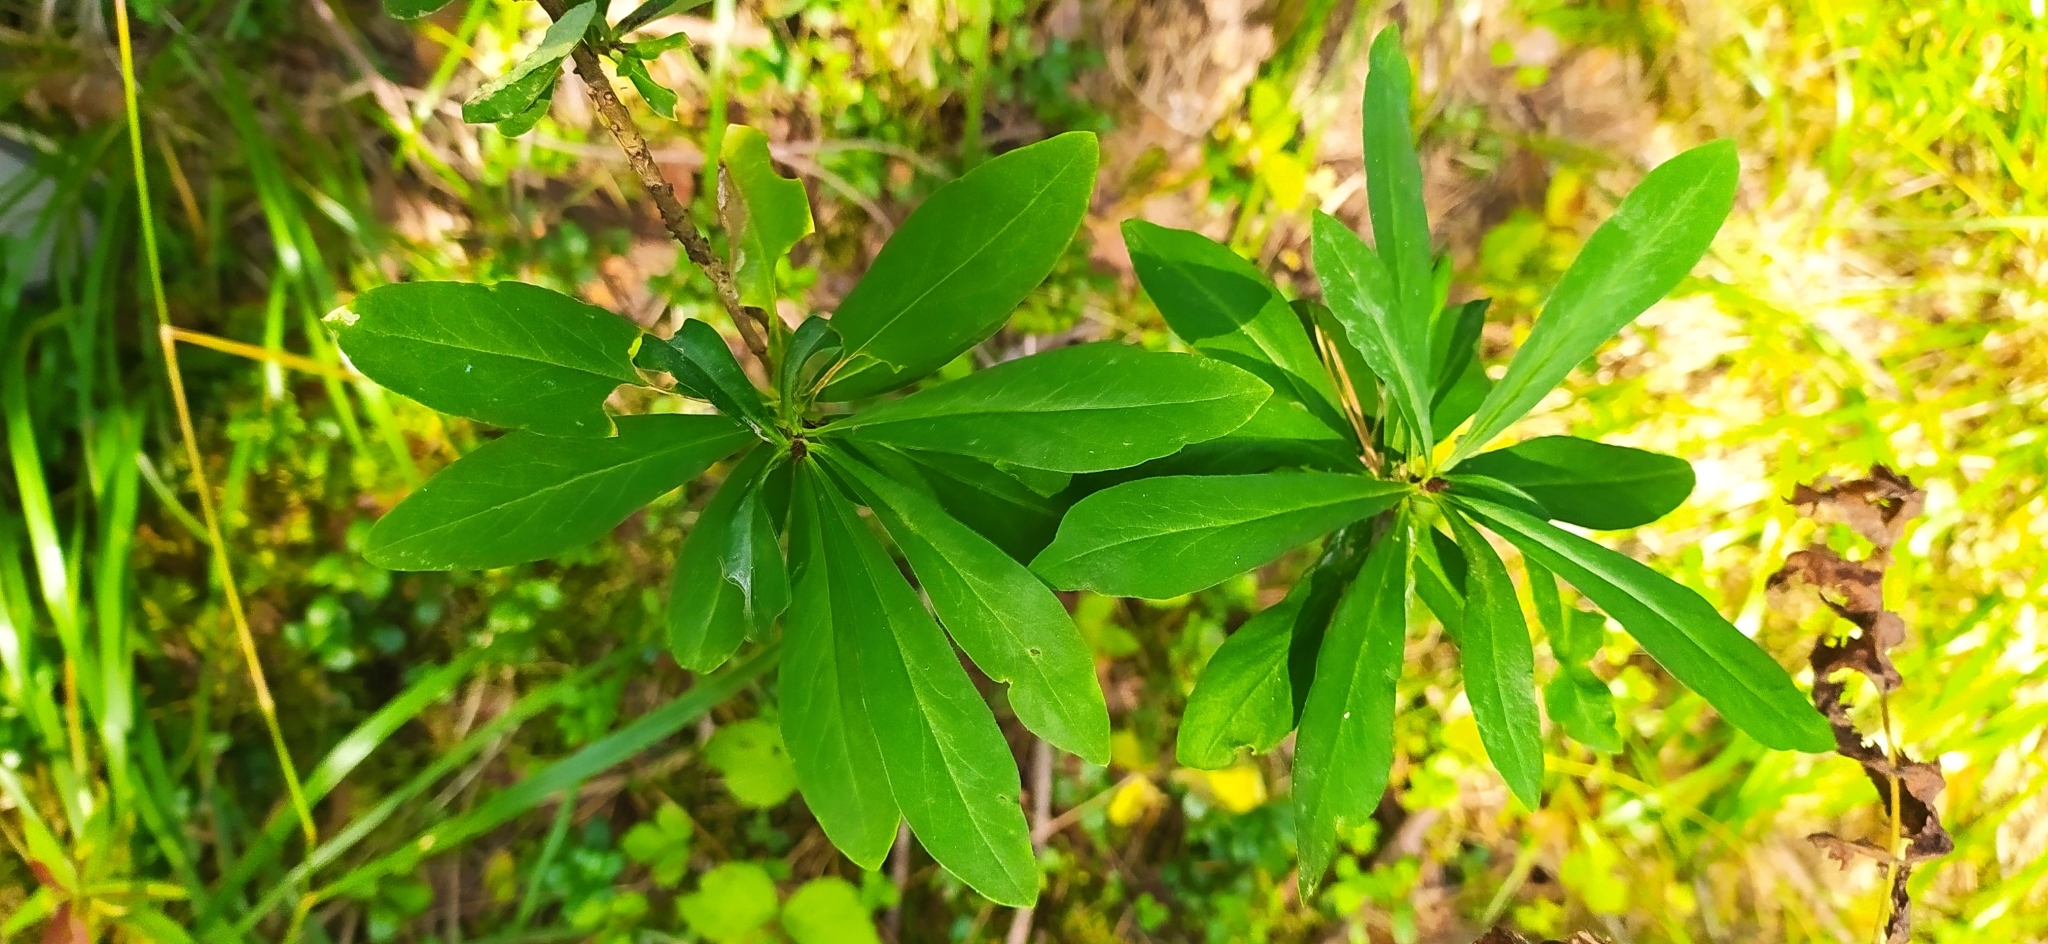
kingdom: Plantae
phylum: Tracheophyta
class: Magnoliopsida
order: Malvales
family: Thymelaeaceae
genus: Daphne
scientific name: Daphne mezereum
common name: Mezereon
